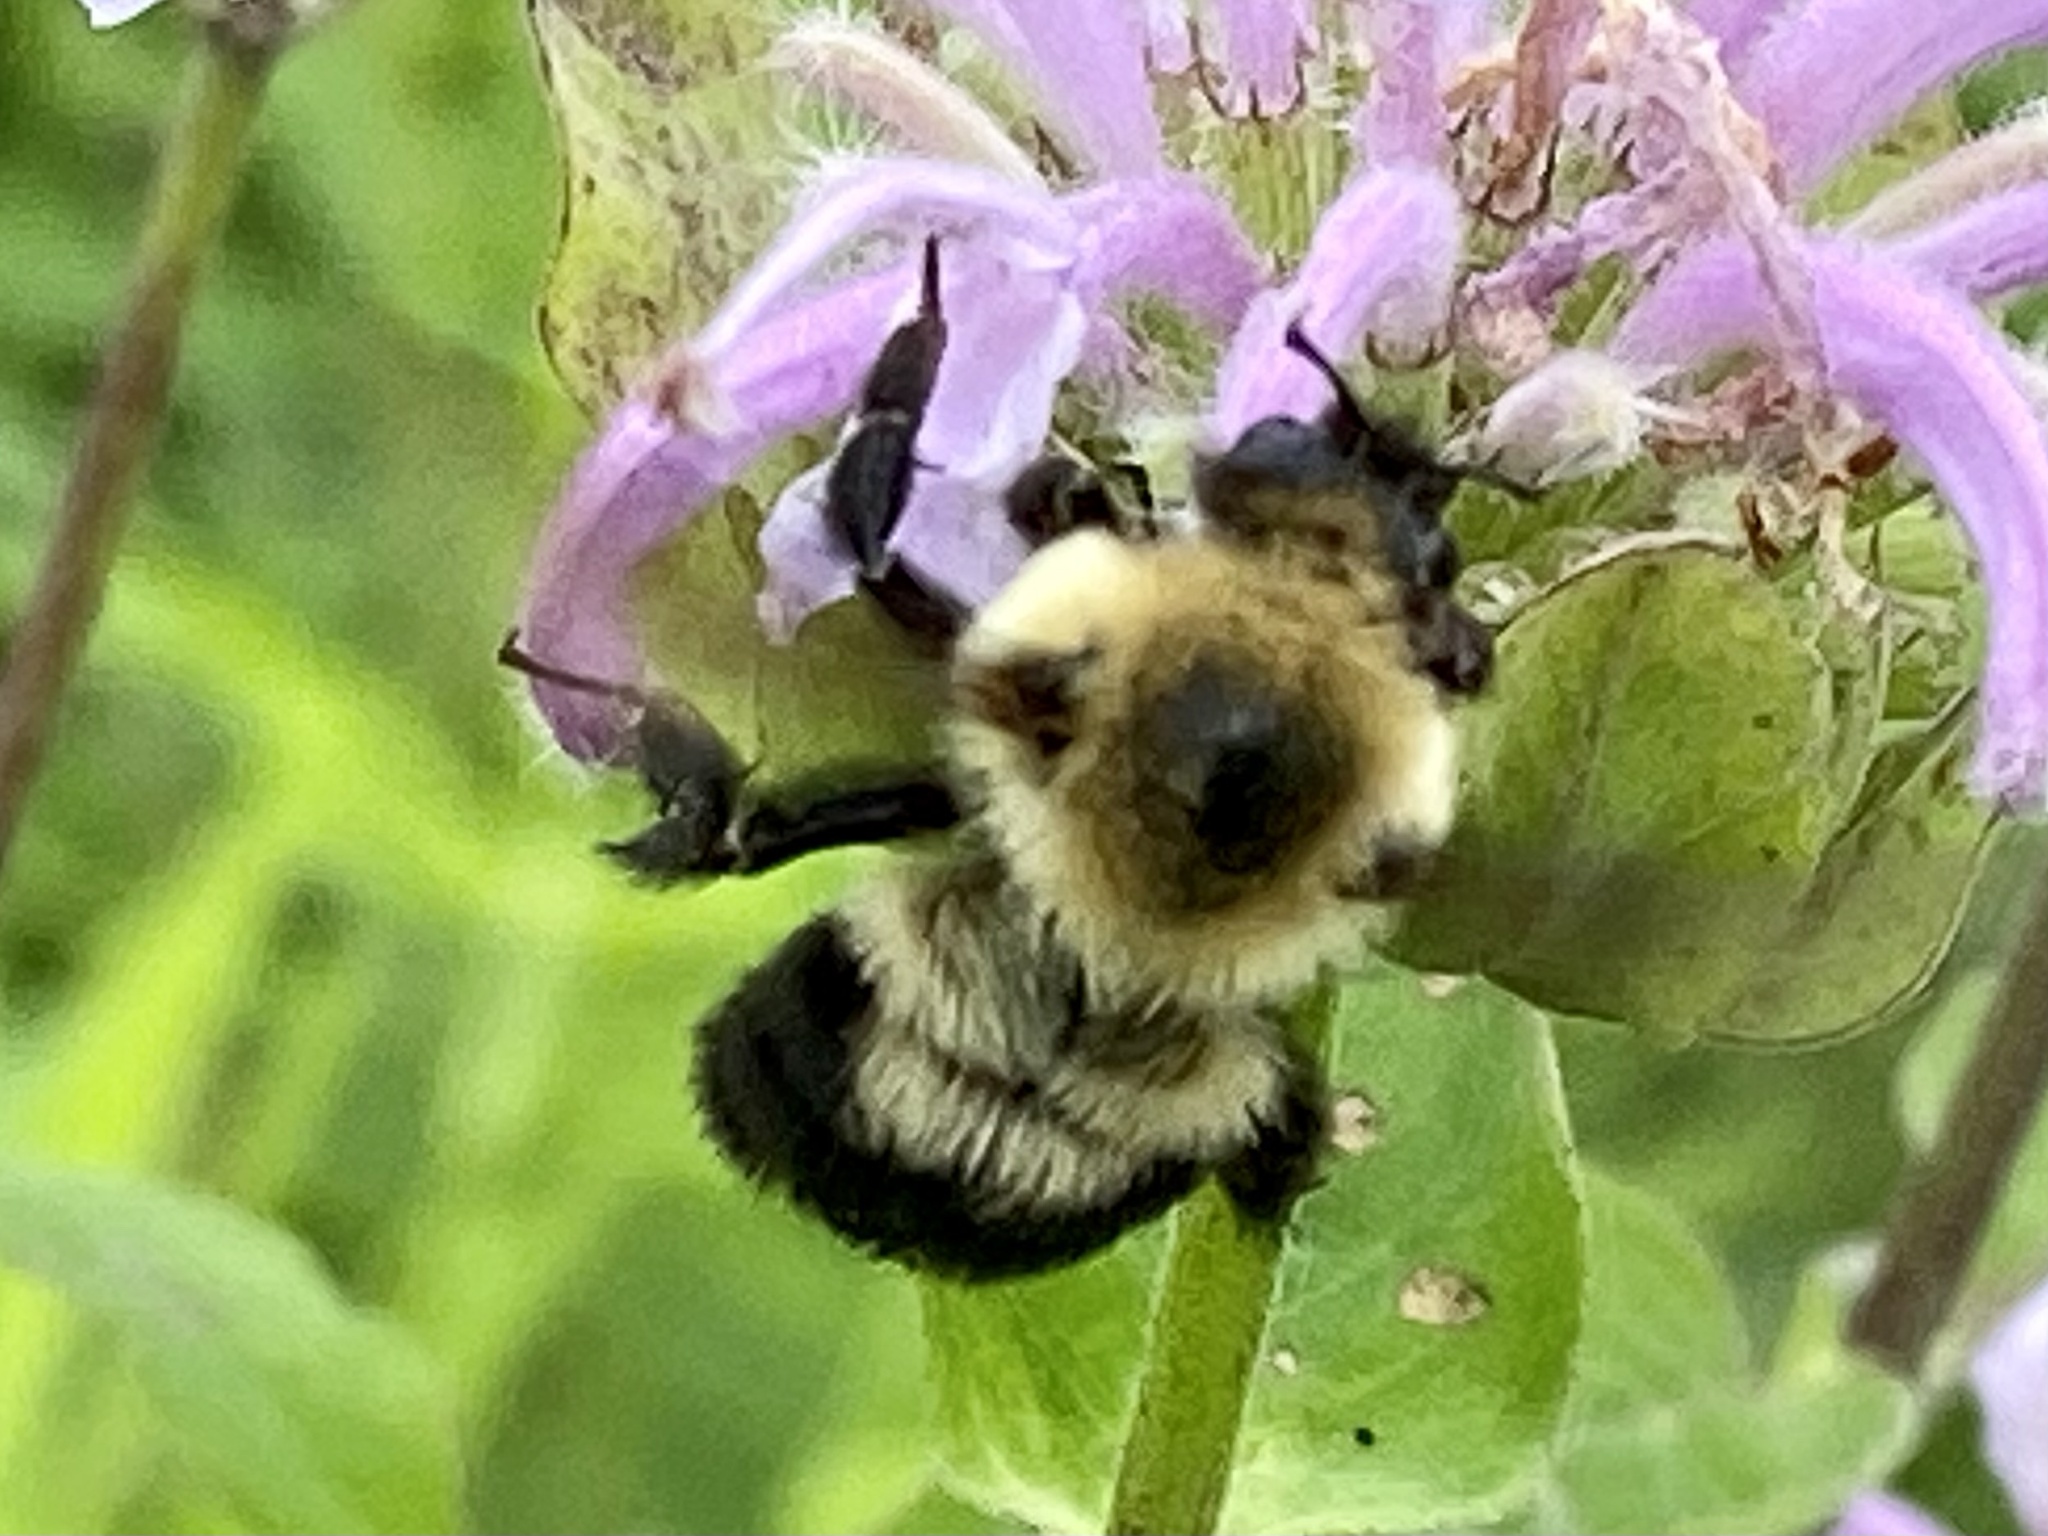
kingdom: Animalia
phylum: Arthropoda
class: Insecta
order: Hymenoptera
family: Apidae
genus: Bombus
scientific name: Bombus bimaculatus
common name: Two-spotted bumble bee
